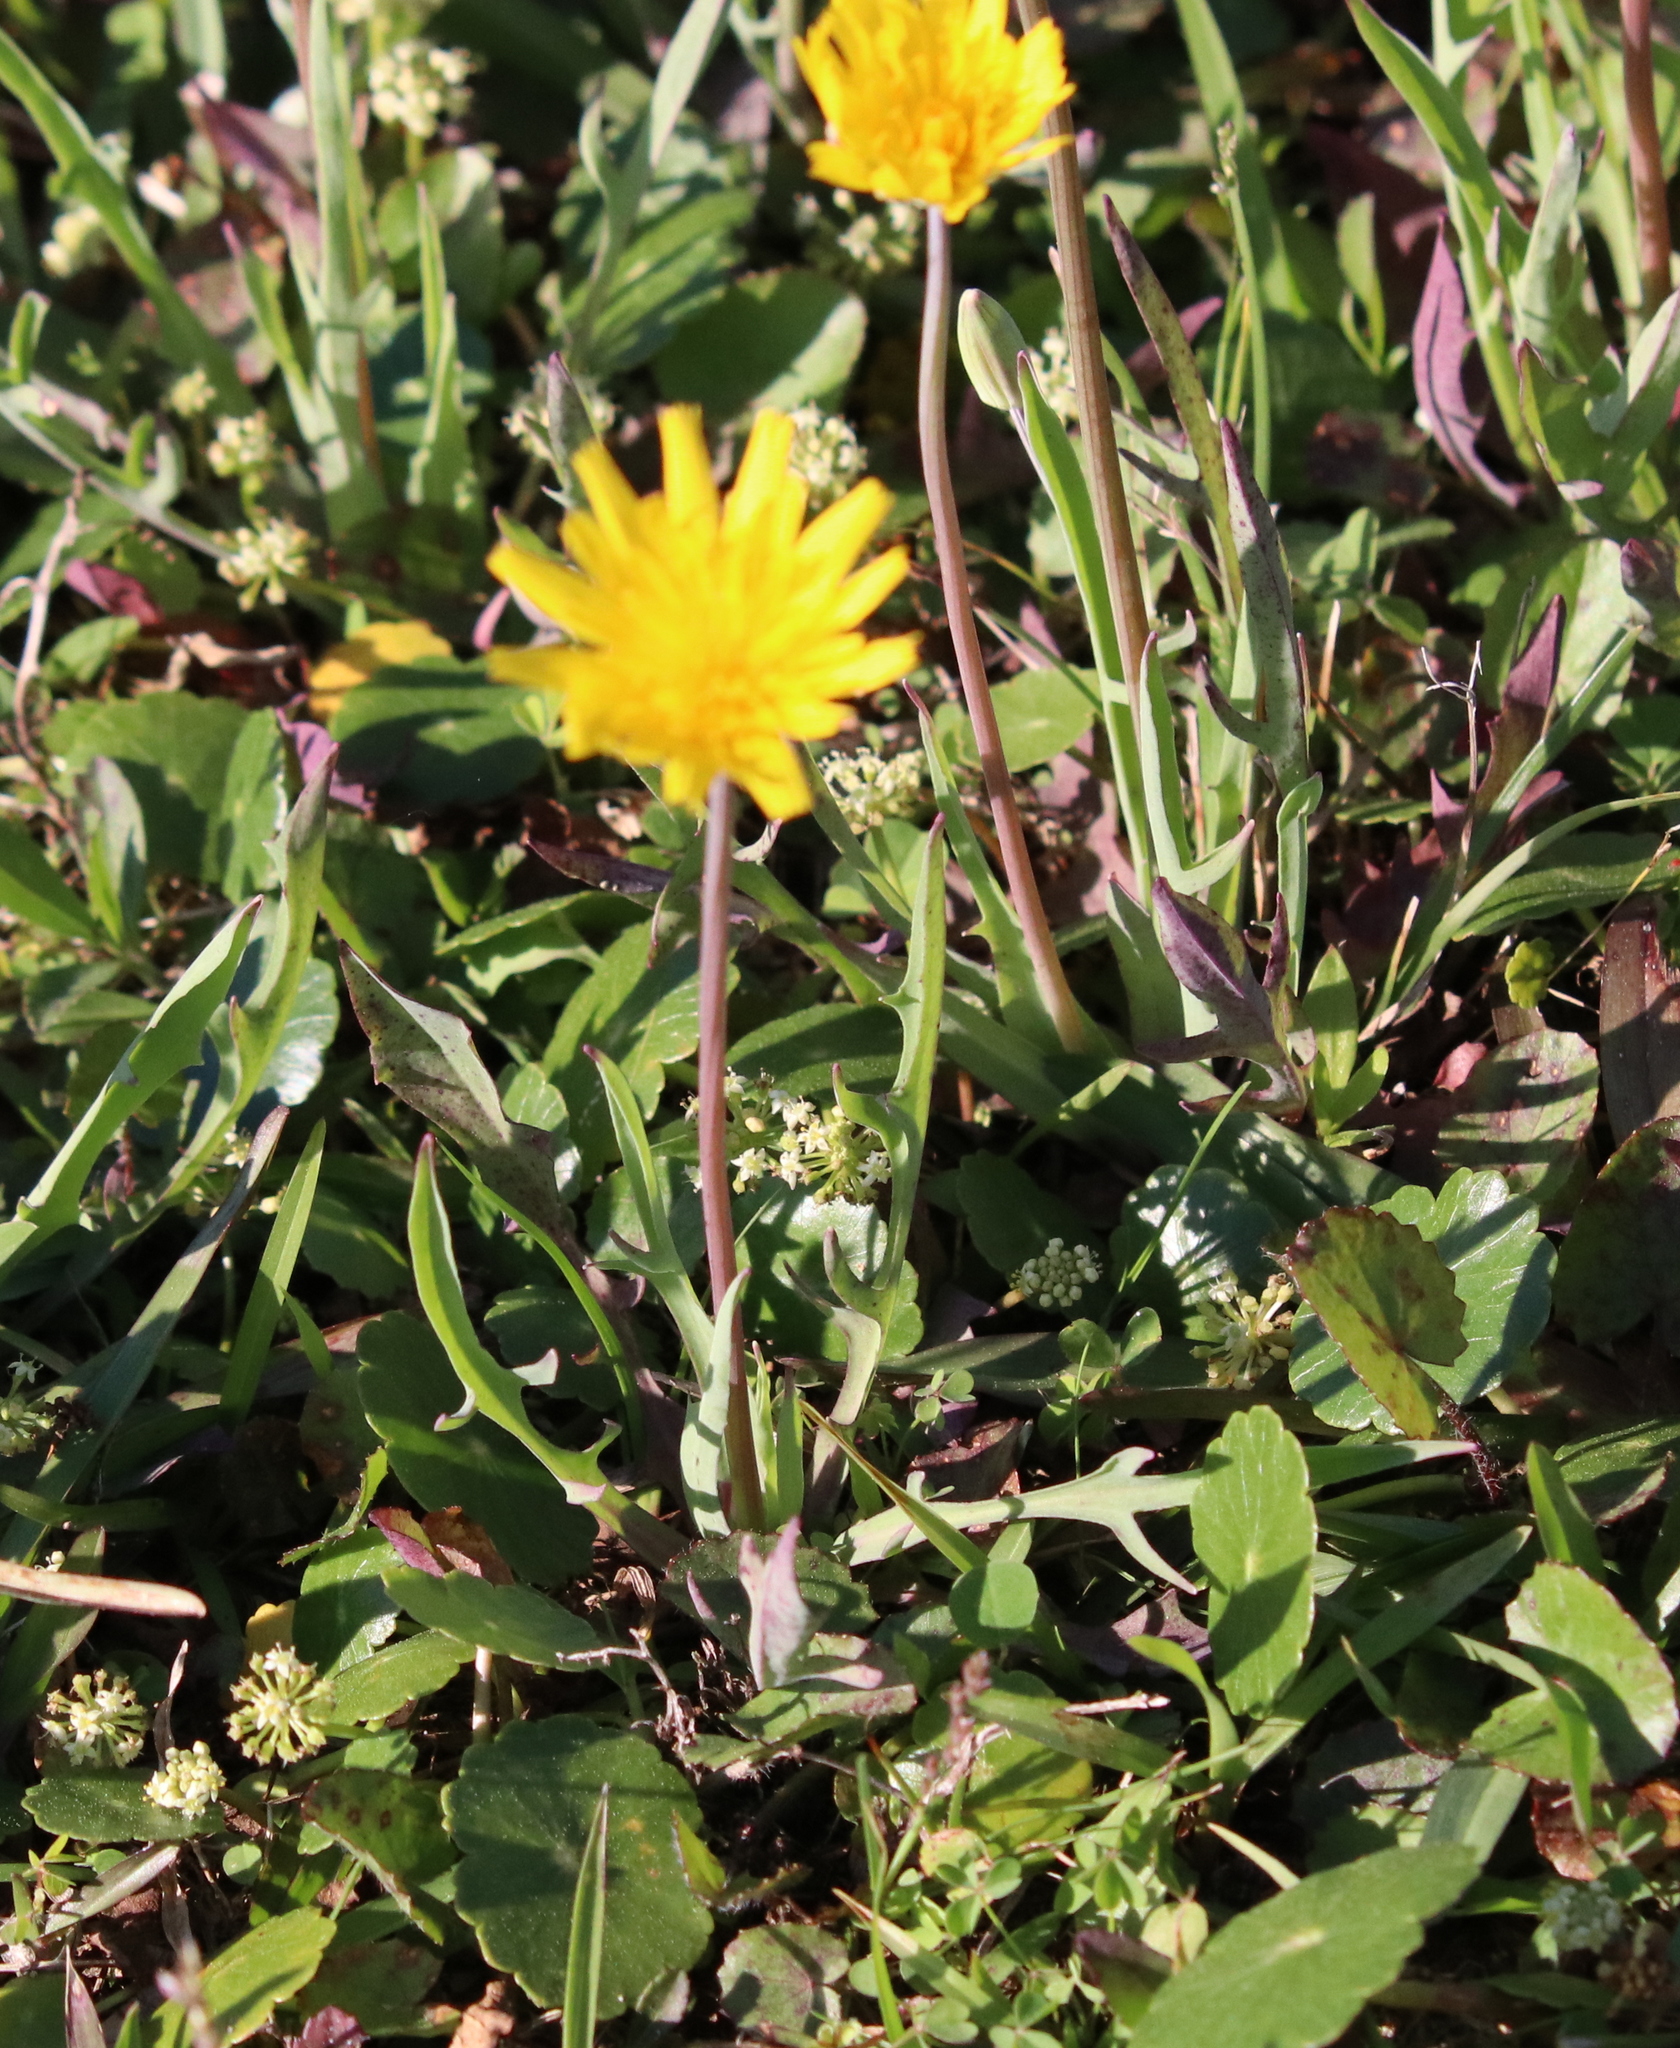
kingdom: Plantae
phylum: Tracheophyta
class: Magnoliopsida
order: Asterales
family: Asteraceae
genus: Krigia
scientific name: Krigia dandelion
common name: Colonial dwarf-dandelion
